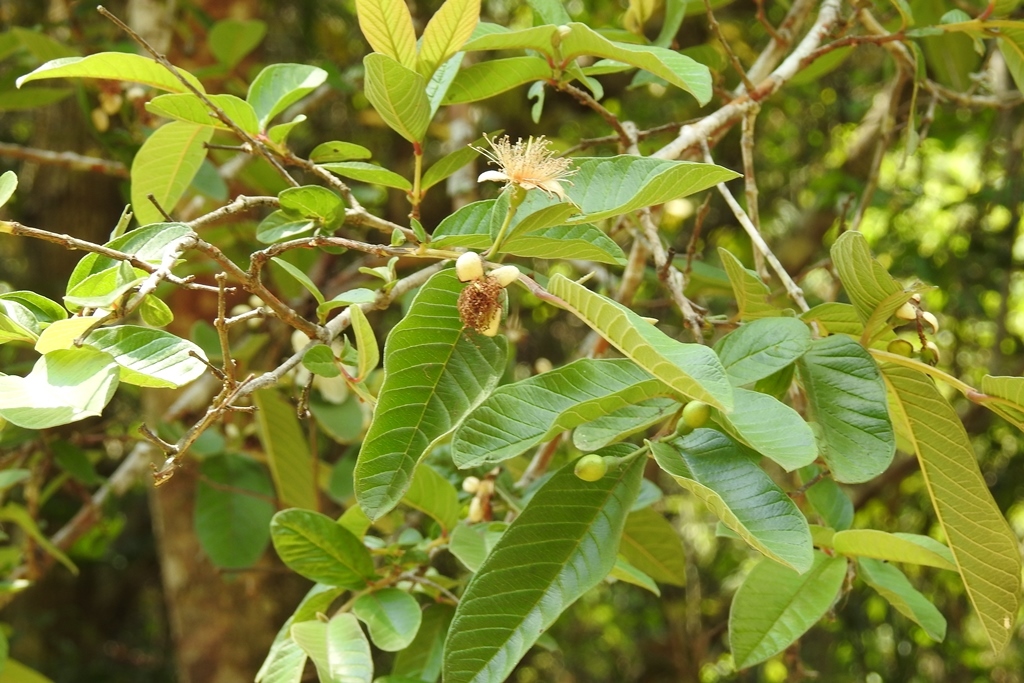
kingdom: Plantae
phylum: Tracheophyta
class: Magnoliopsida
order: Myrtales
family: Myrtaceae
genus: Psidium
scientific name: Psidium guajava
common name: Guava
